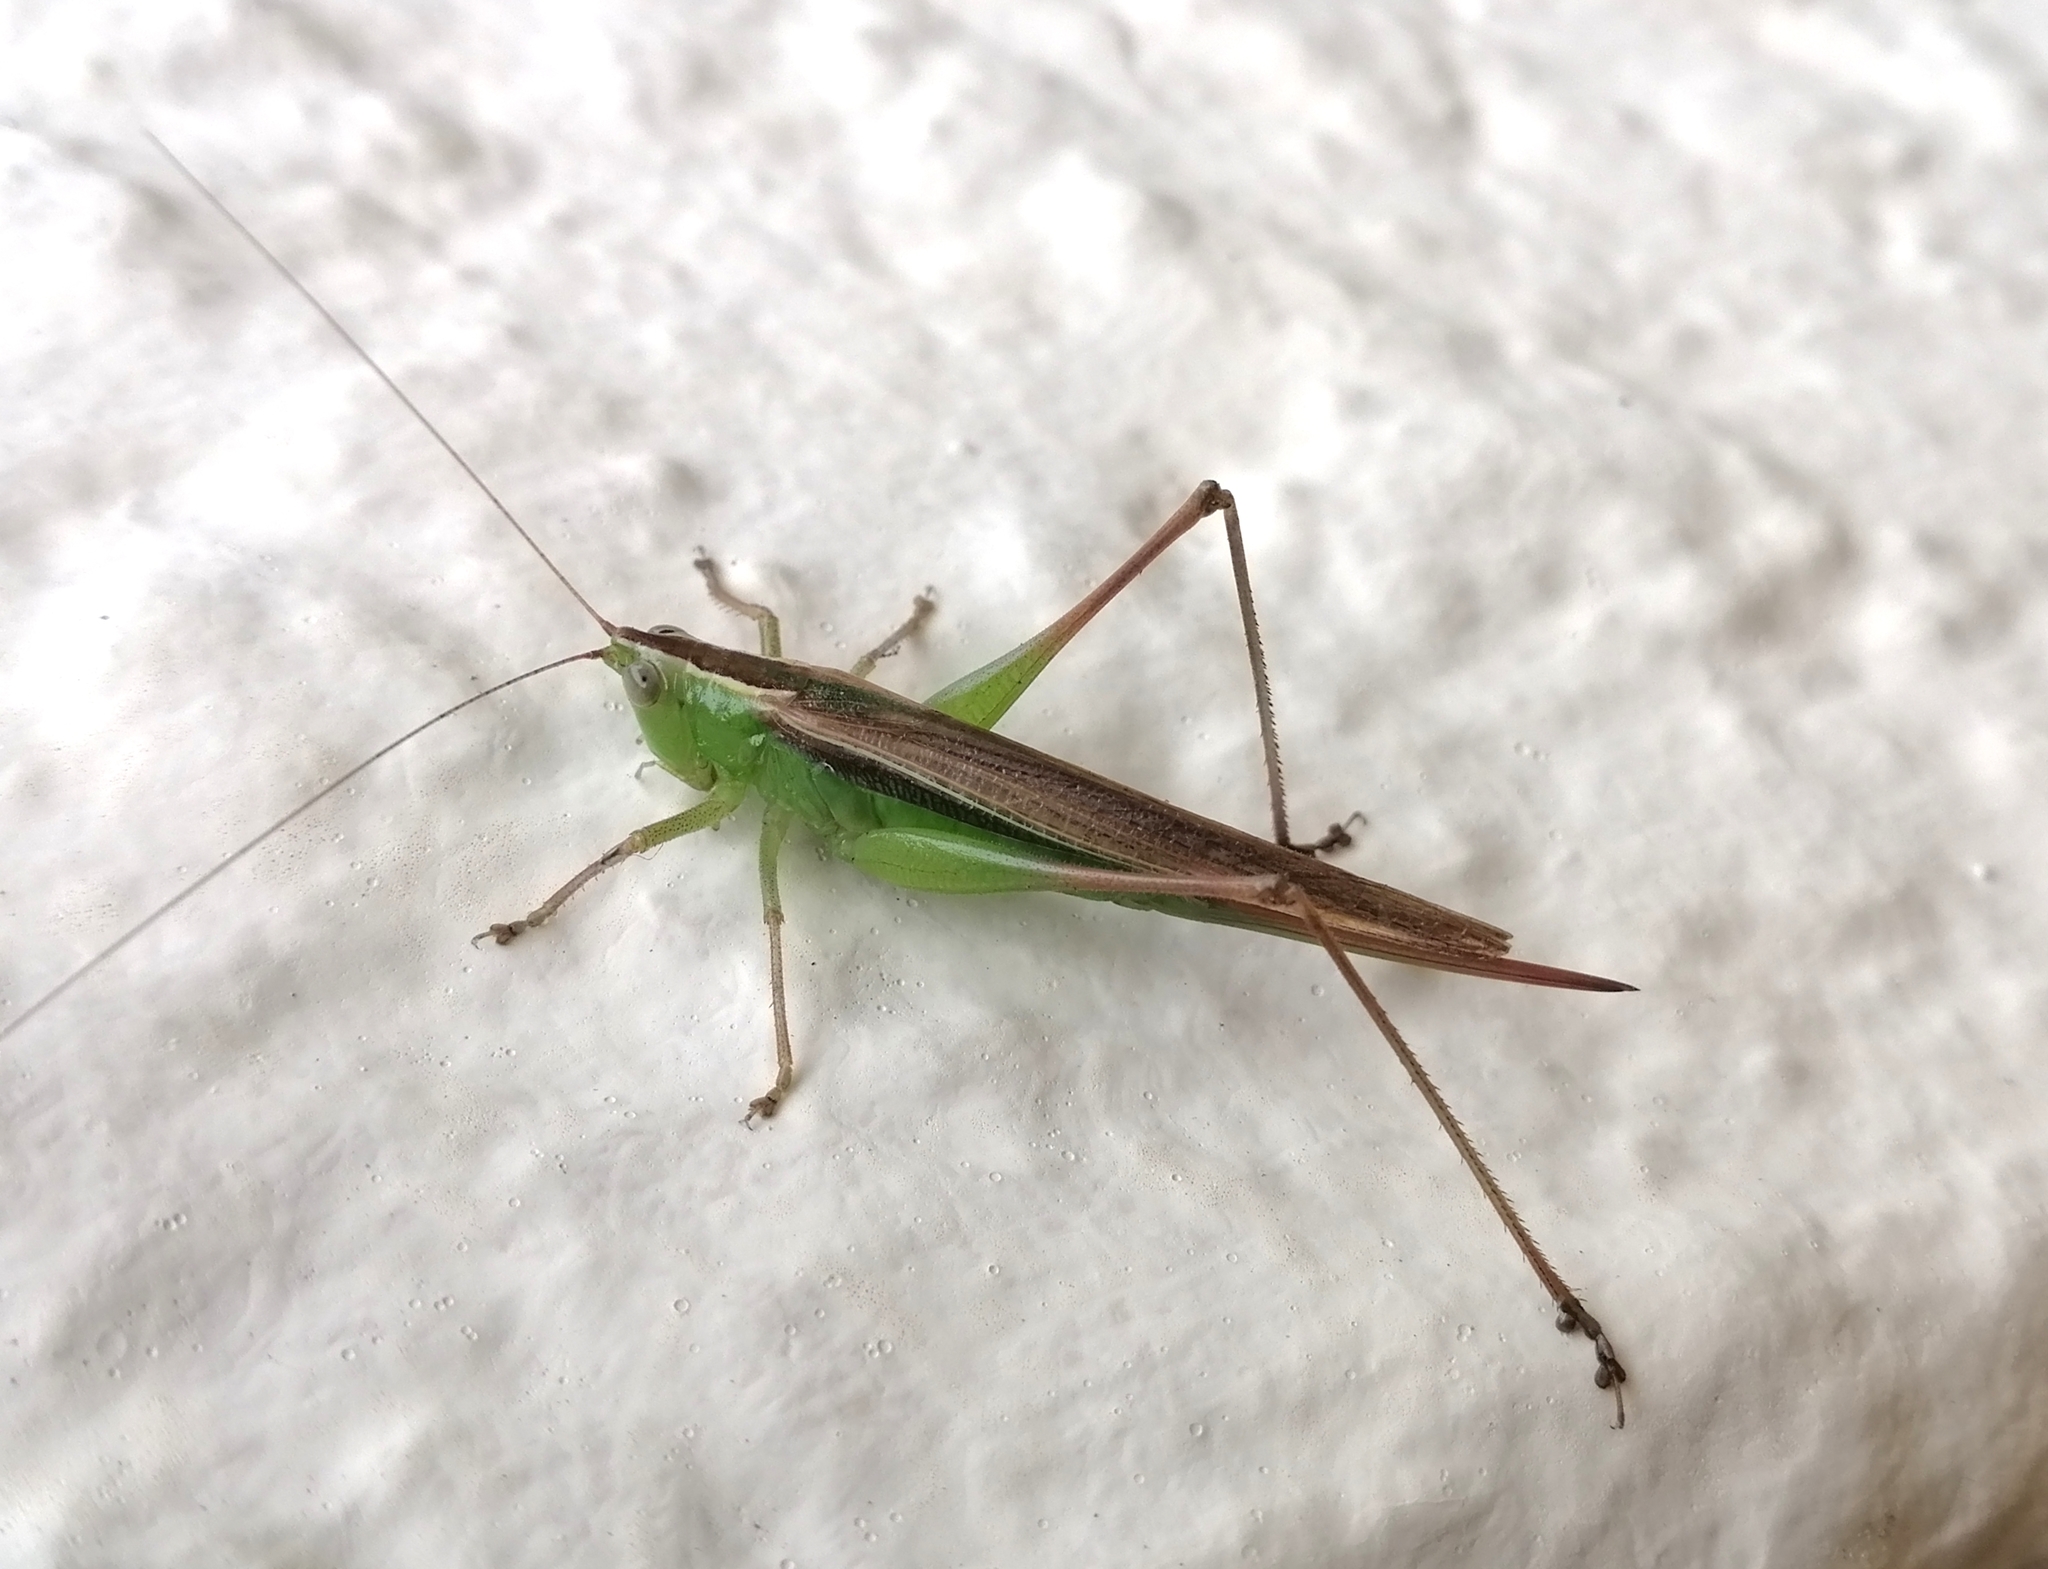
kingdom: Animalia
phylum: Arthropoda
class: Insecta
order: Orthoptera
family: Tettigoniidae
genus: Conocephalus
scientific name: Conocephalus albescens
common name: Whitish meadow katydid
